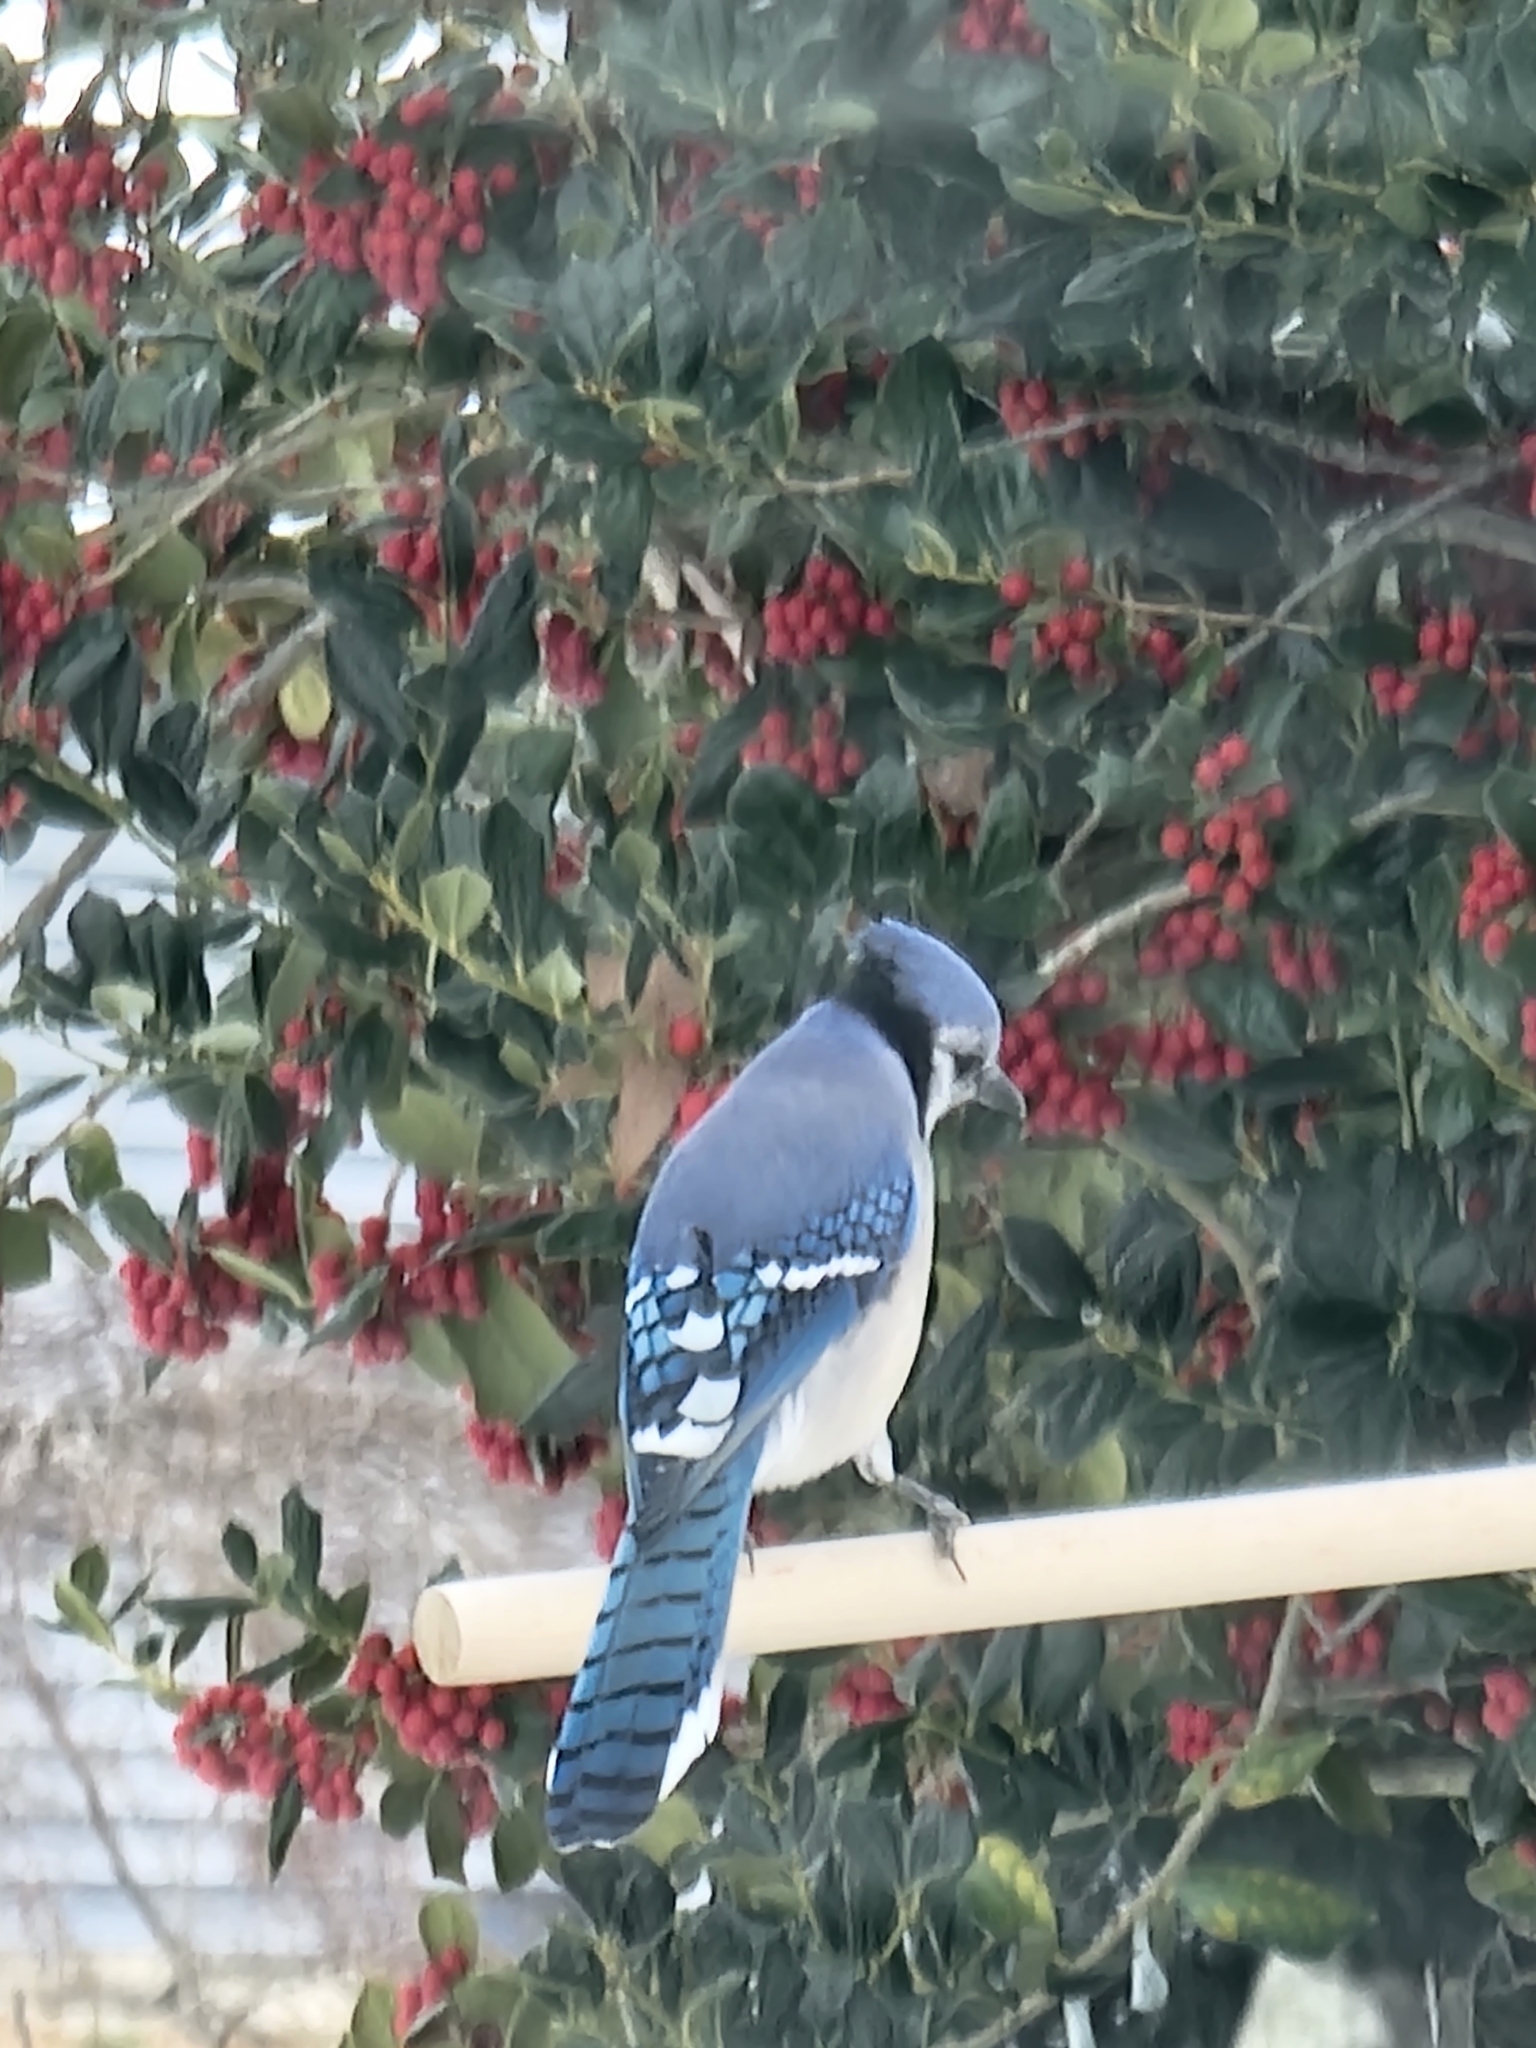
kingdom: Animalia
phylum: Chordata
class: Aves
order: Passeriformes
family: Corvidae
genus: Cyanocitta
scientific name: Cyanocitta cristata
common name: Blue jay
